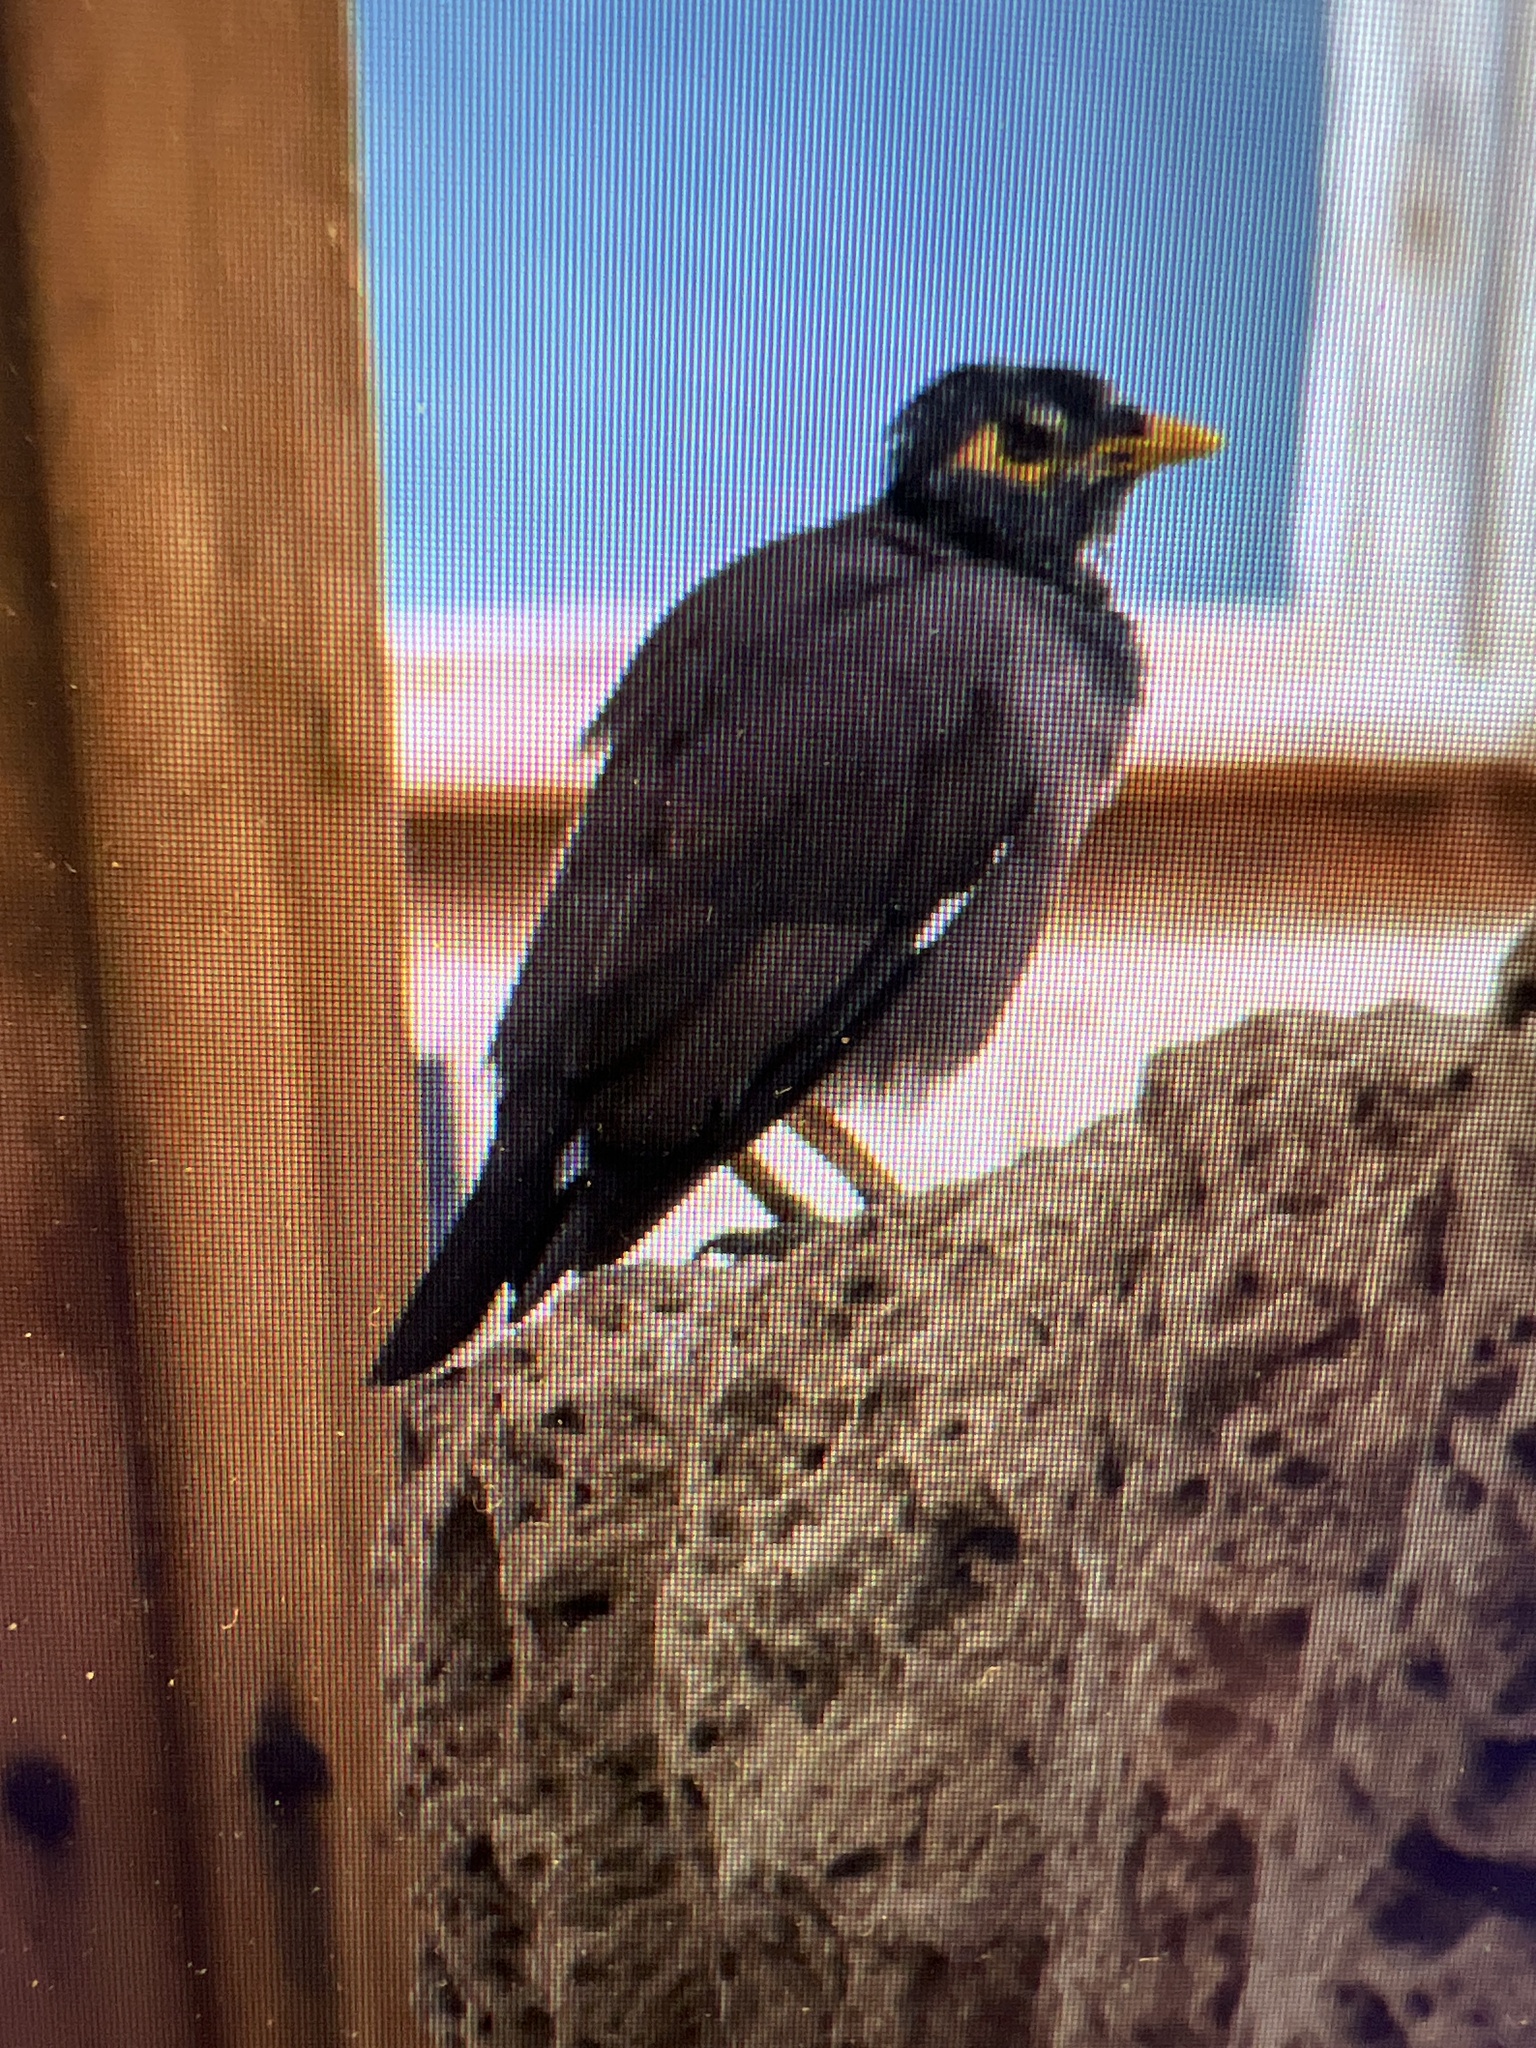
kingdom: Animalia
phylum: Chordata
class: Aves
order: Passeriformes
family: Sturnidae
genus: Acridotheres
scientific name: Acridotheres tristis
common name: Common myna
